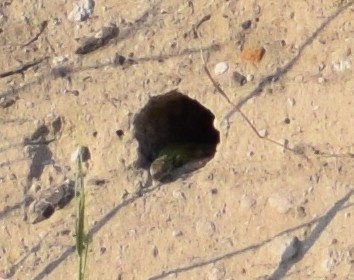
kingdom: Animalia
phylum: Chordata
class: Squamata
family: Lacertidae
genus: Lacerta
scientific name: Lacerta viridis
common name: European green lizard
